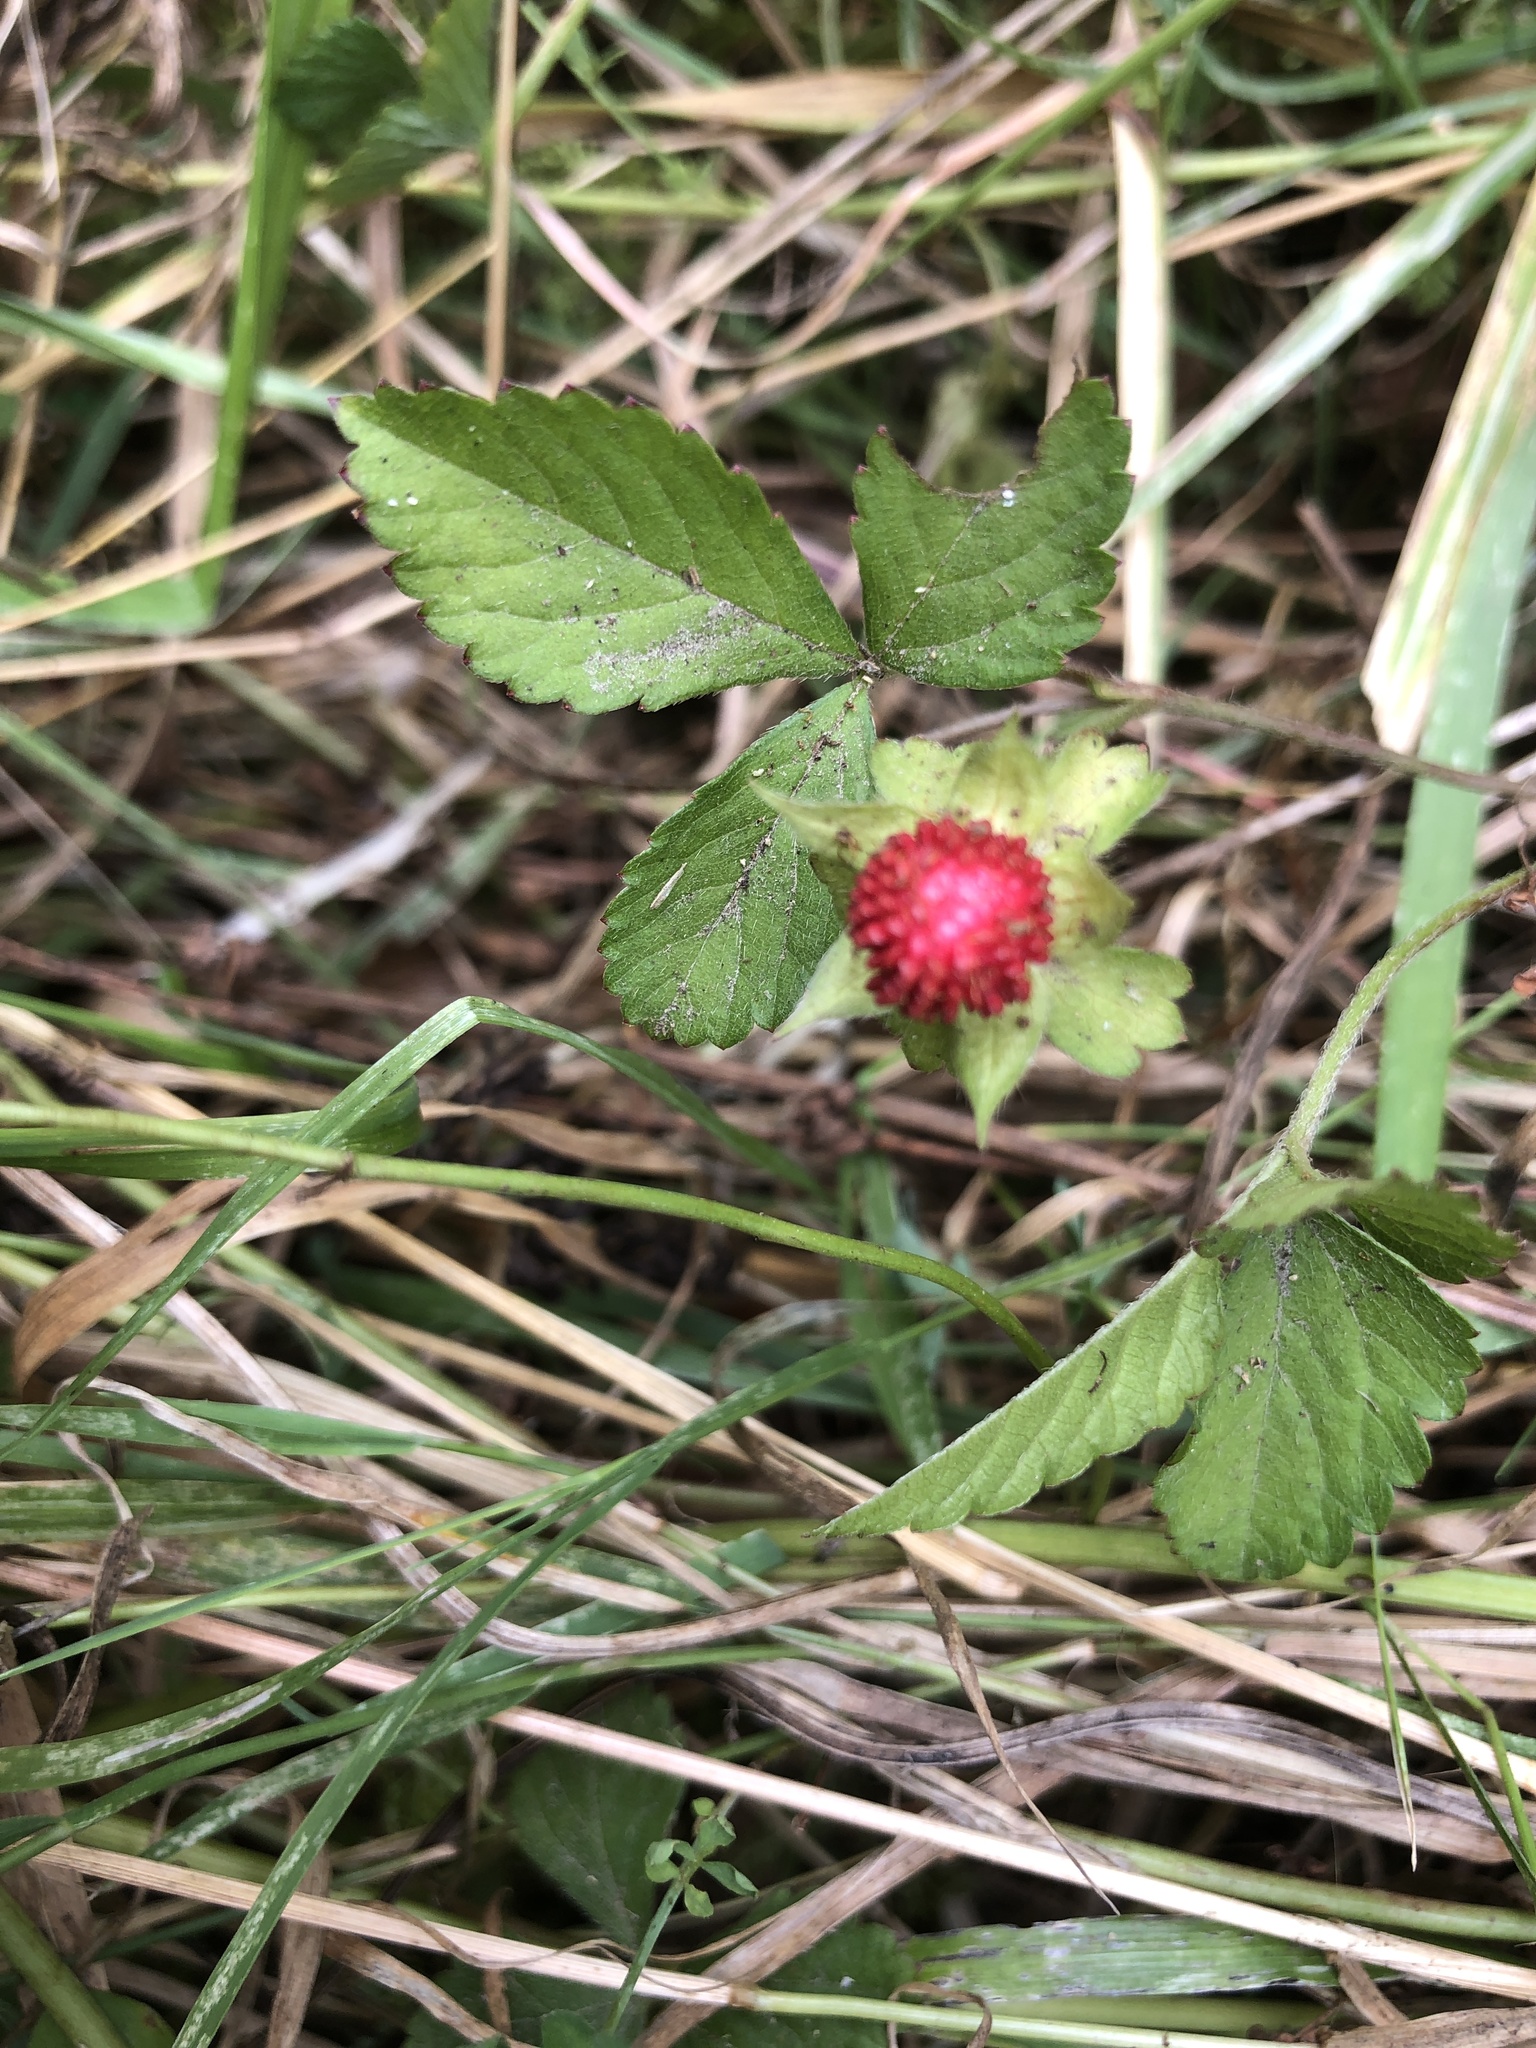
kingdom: Plantae
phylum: Tracheophyta
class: Magnoliopsida
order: Rosales
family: Rosaceae
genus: Potentilla
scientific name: Potentilla indica
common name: Yellow-flowered strawberry
